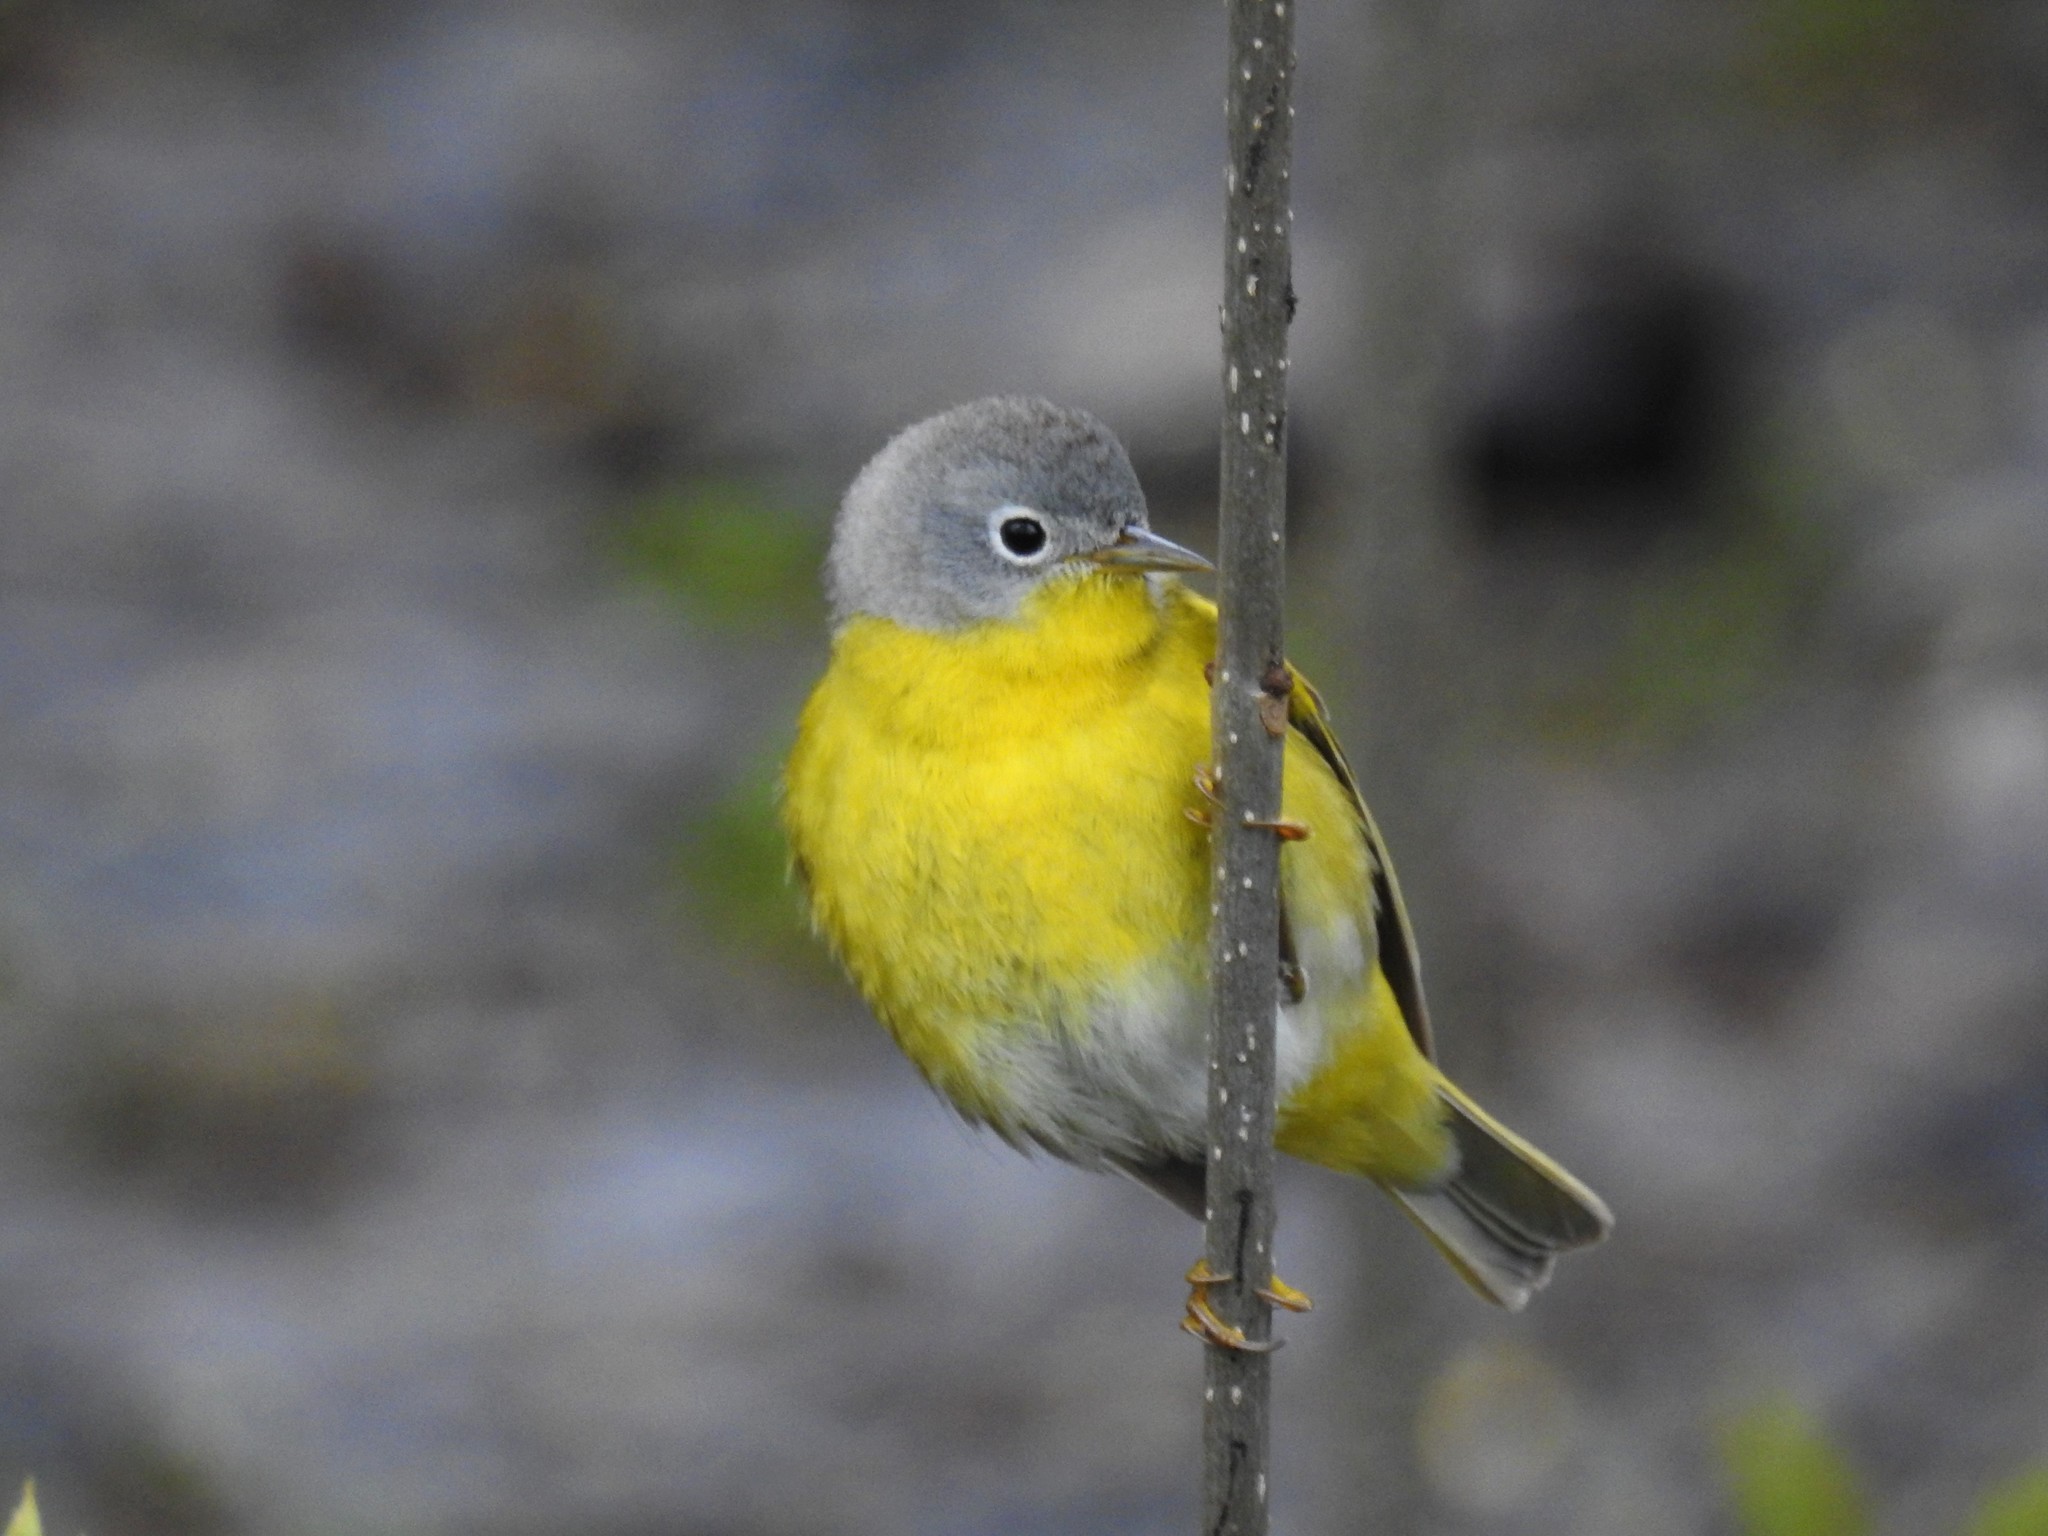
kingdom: Animalia
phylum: Chordata
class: Aves
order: Passeriformes
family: Parulidae
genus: Leiothlypis
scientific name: Leiothlypis ruficapilla
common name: Nashville warbler
